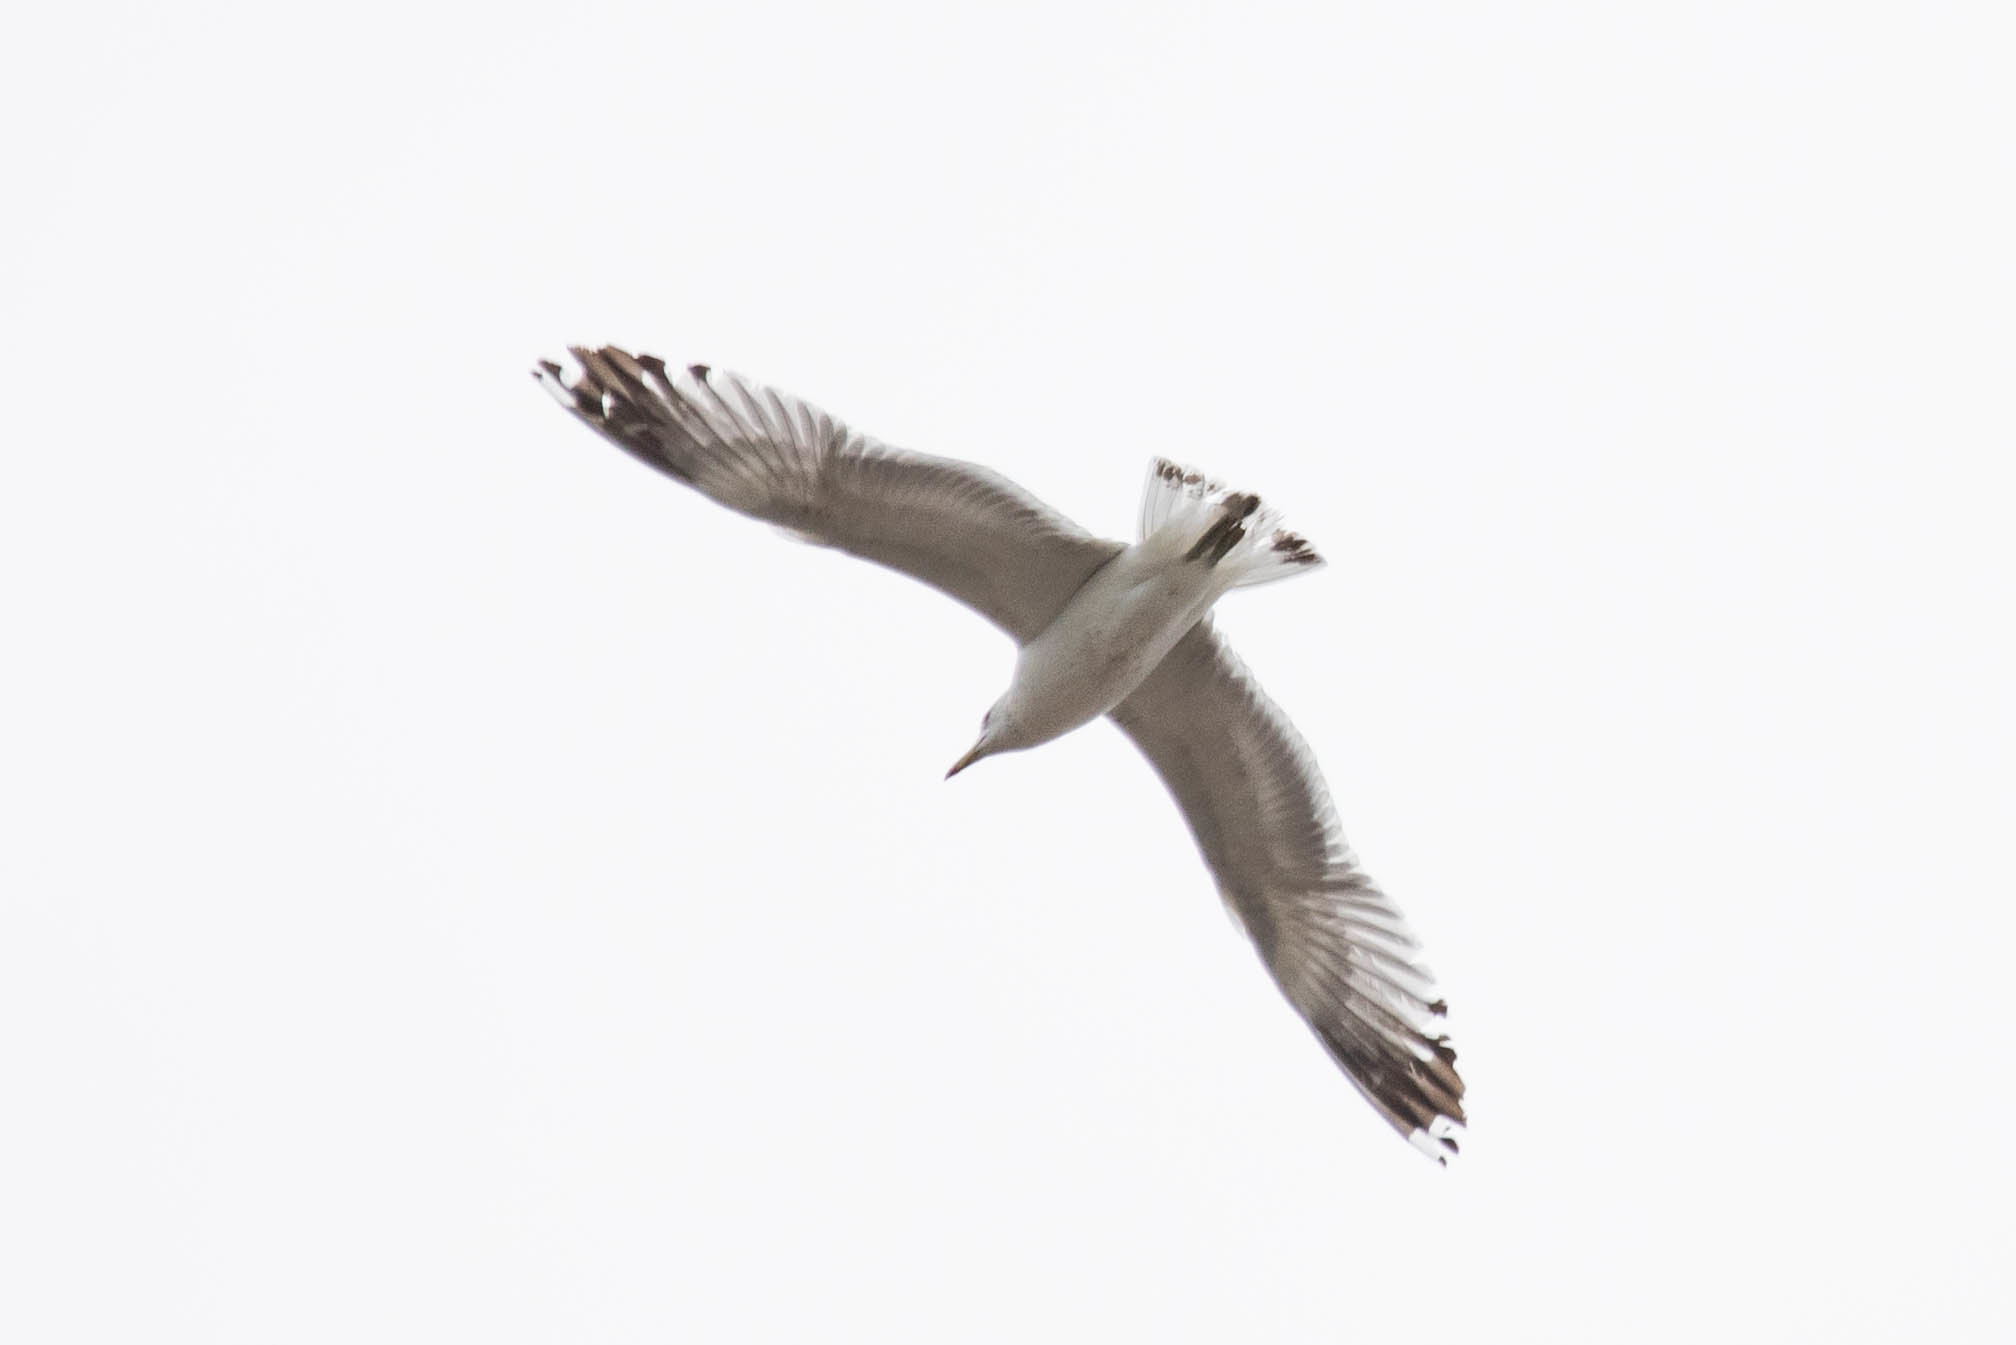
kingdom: Animalia
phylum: Chordata
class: Aves
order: Charadriiformes
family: Laridae
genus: Larus
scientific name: Larus californicus
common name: California gull
